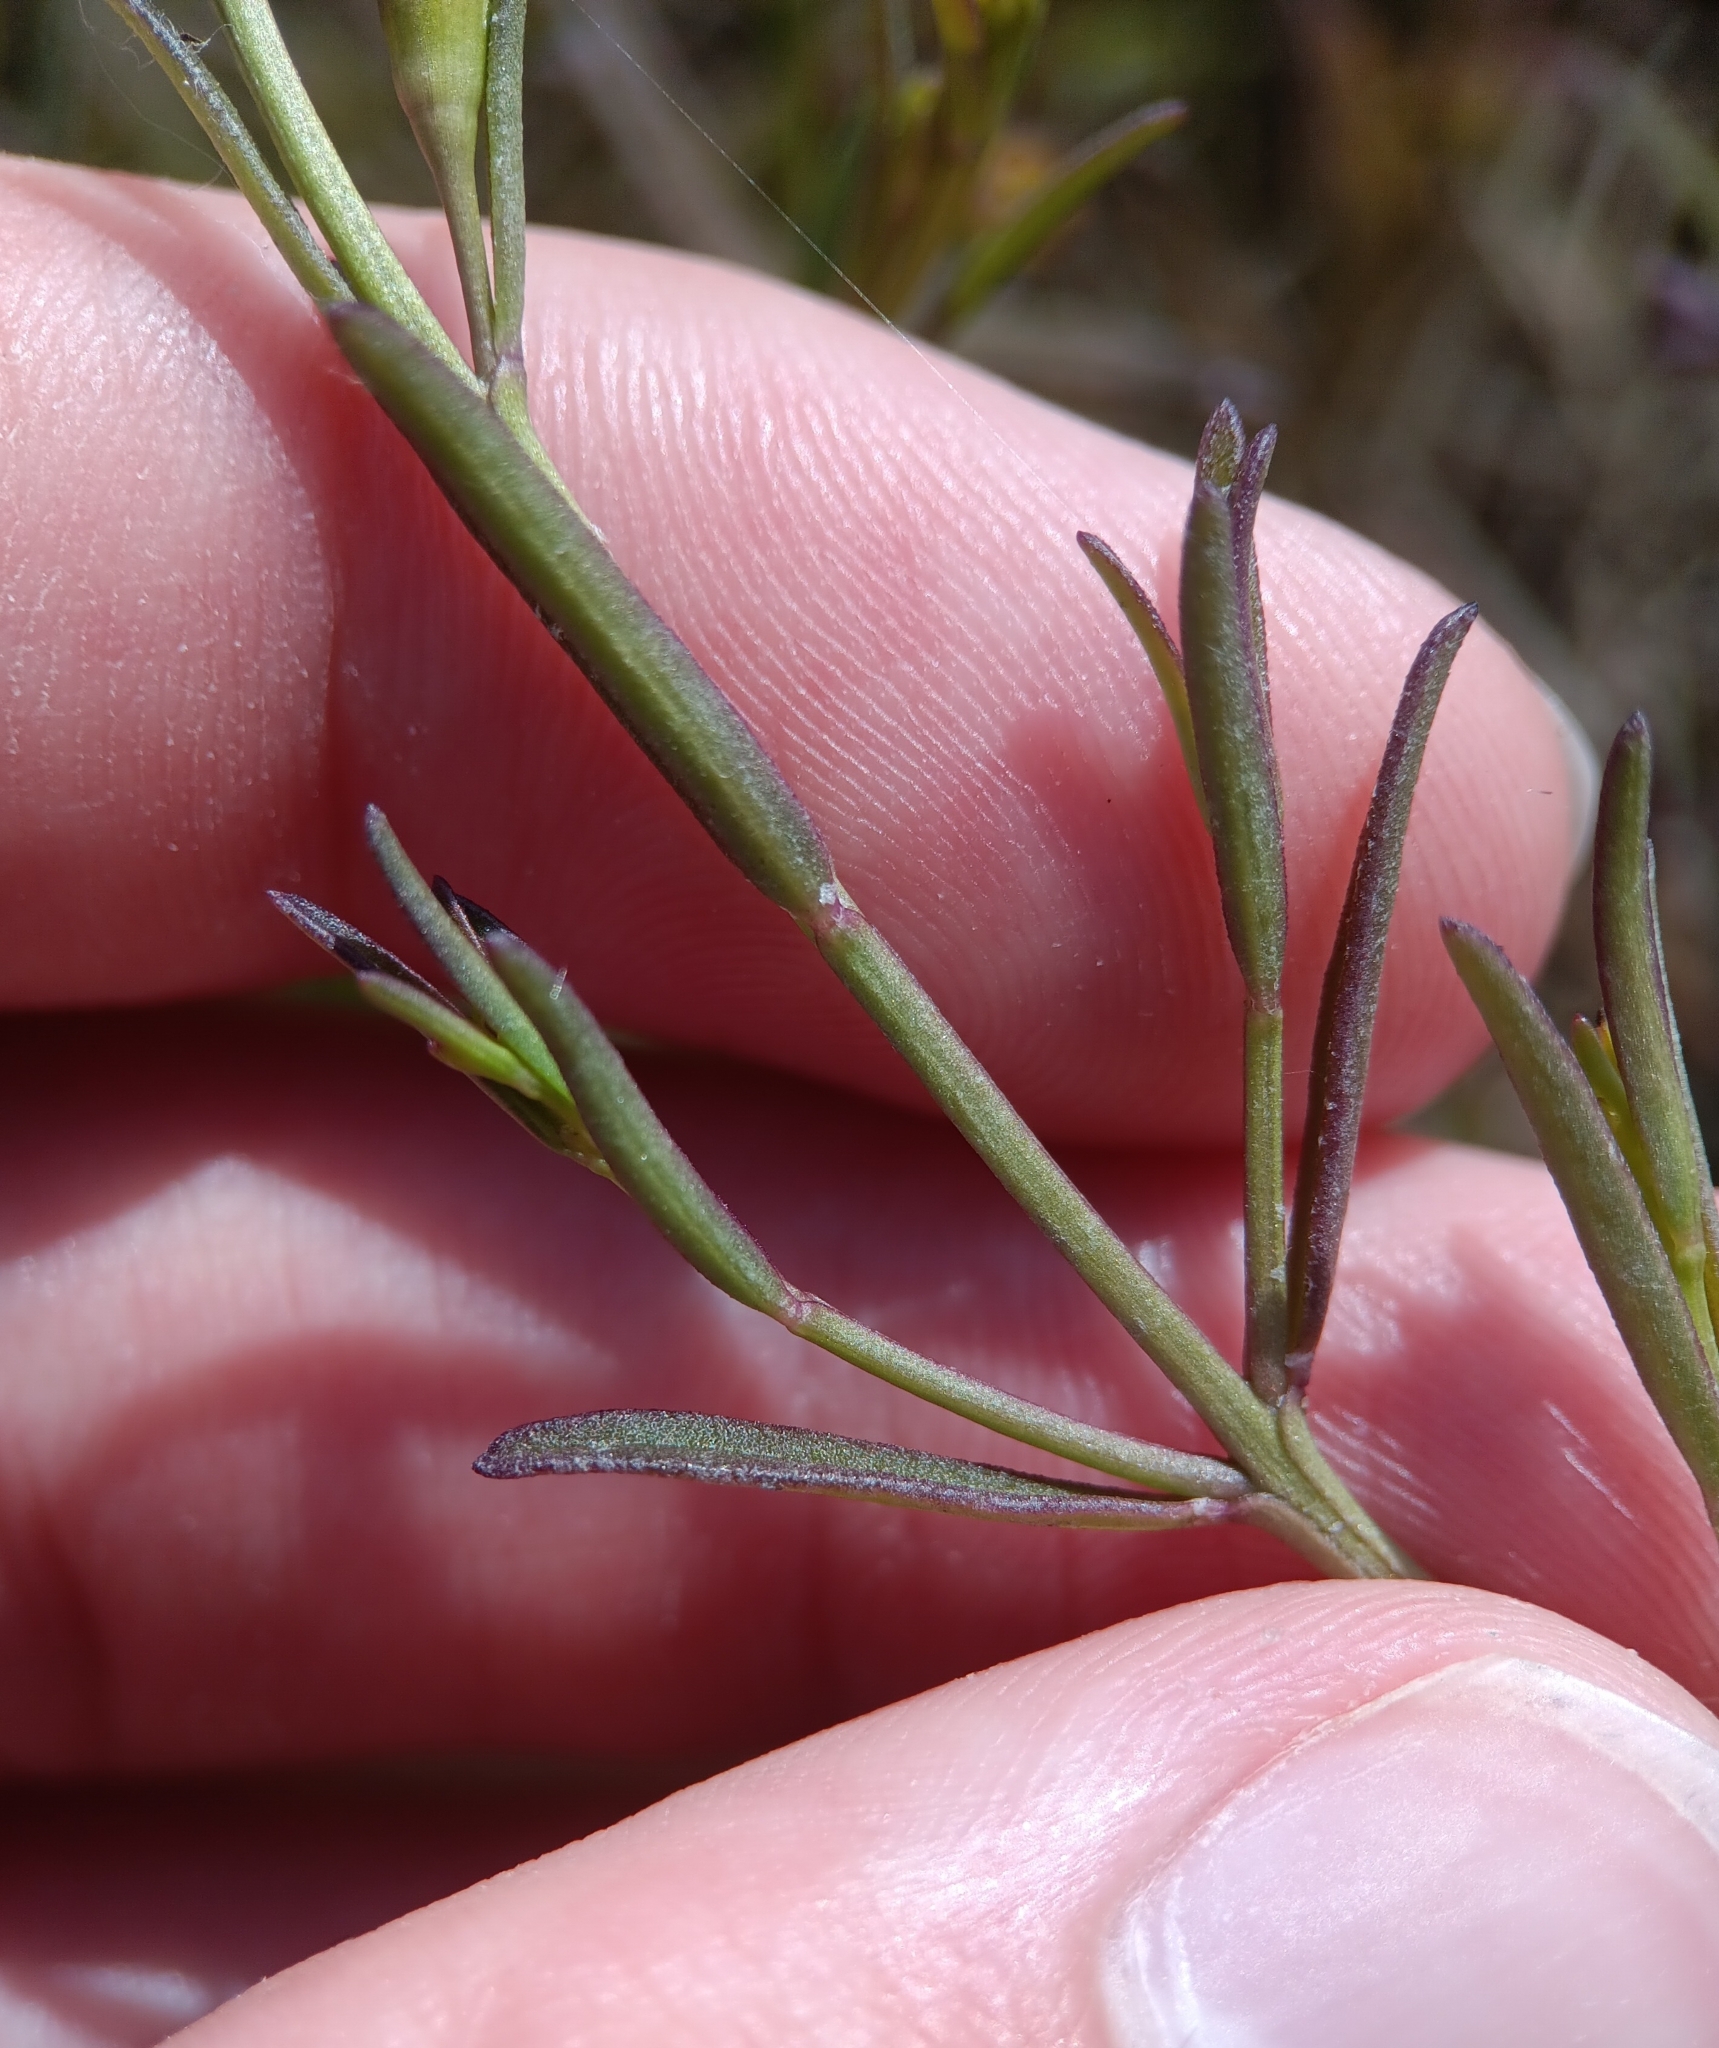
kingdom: Plantae
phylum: Tracheophyta
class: Magnoliopsida
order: Lamiales
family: Orobanchaceae
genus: Agalinis
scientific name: Agalinis maritima
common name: Saltmarsh agalinis
